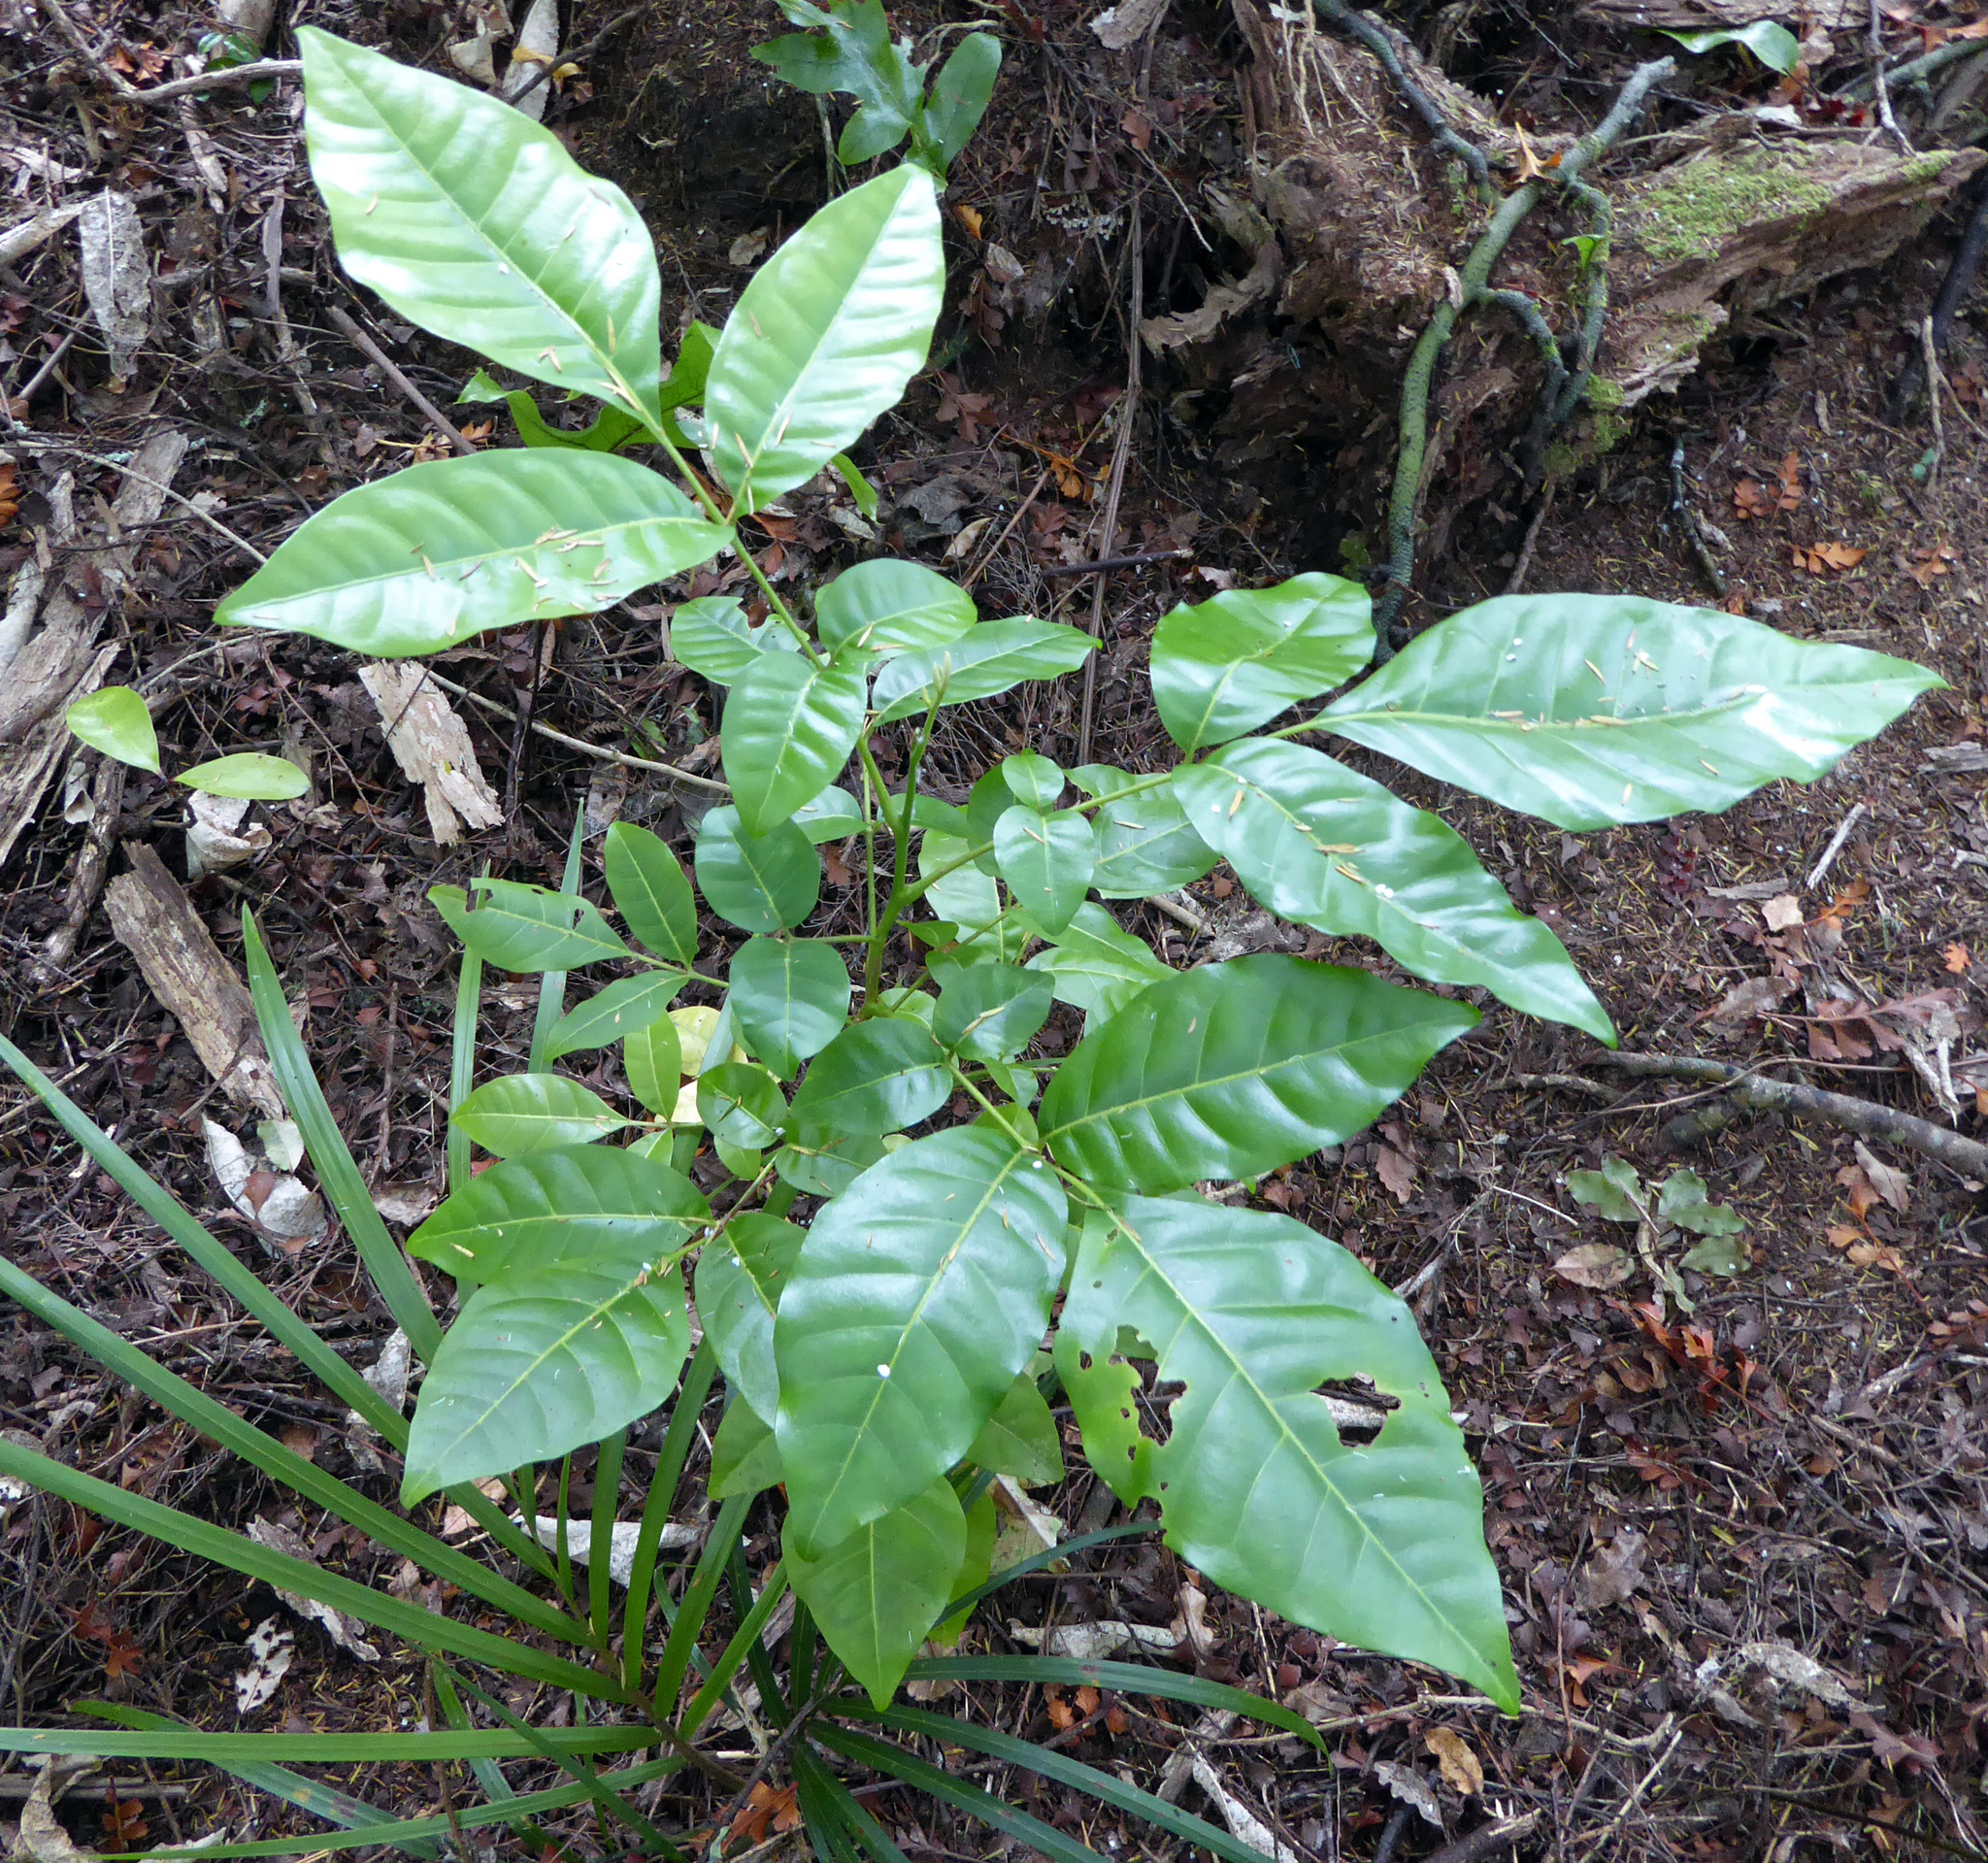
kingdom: Plantae
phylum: Tracheophyta
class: Magnoliopsida
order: Sapindales
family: Meliaceae
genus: Didymocheton
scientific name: Didymocheton spectabilis
